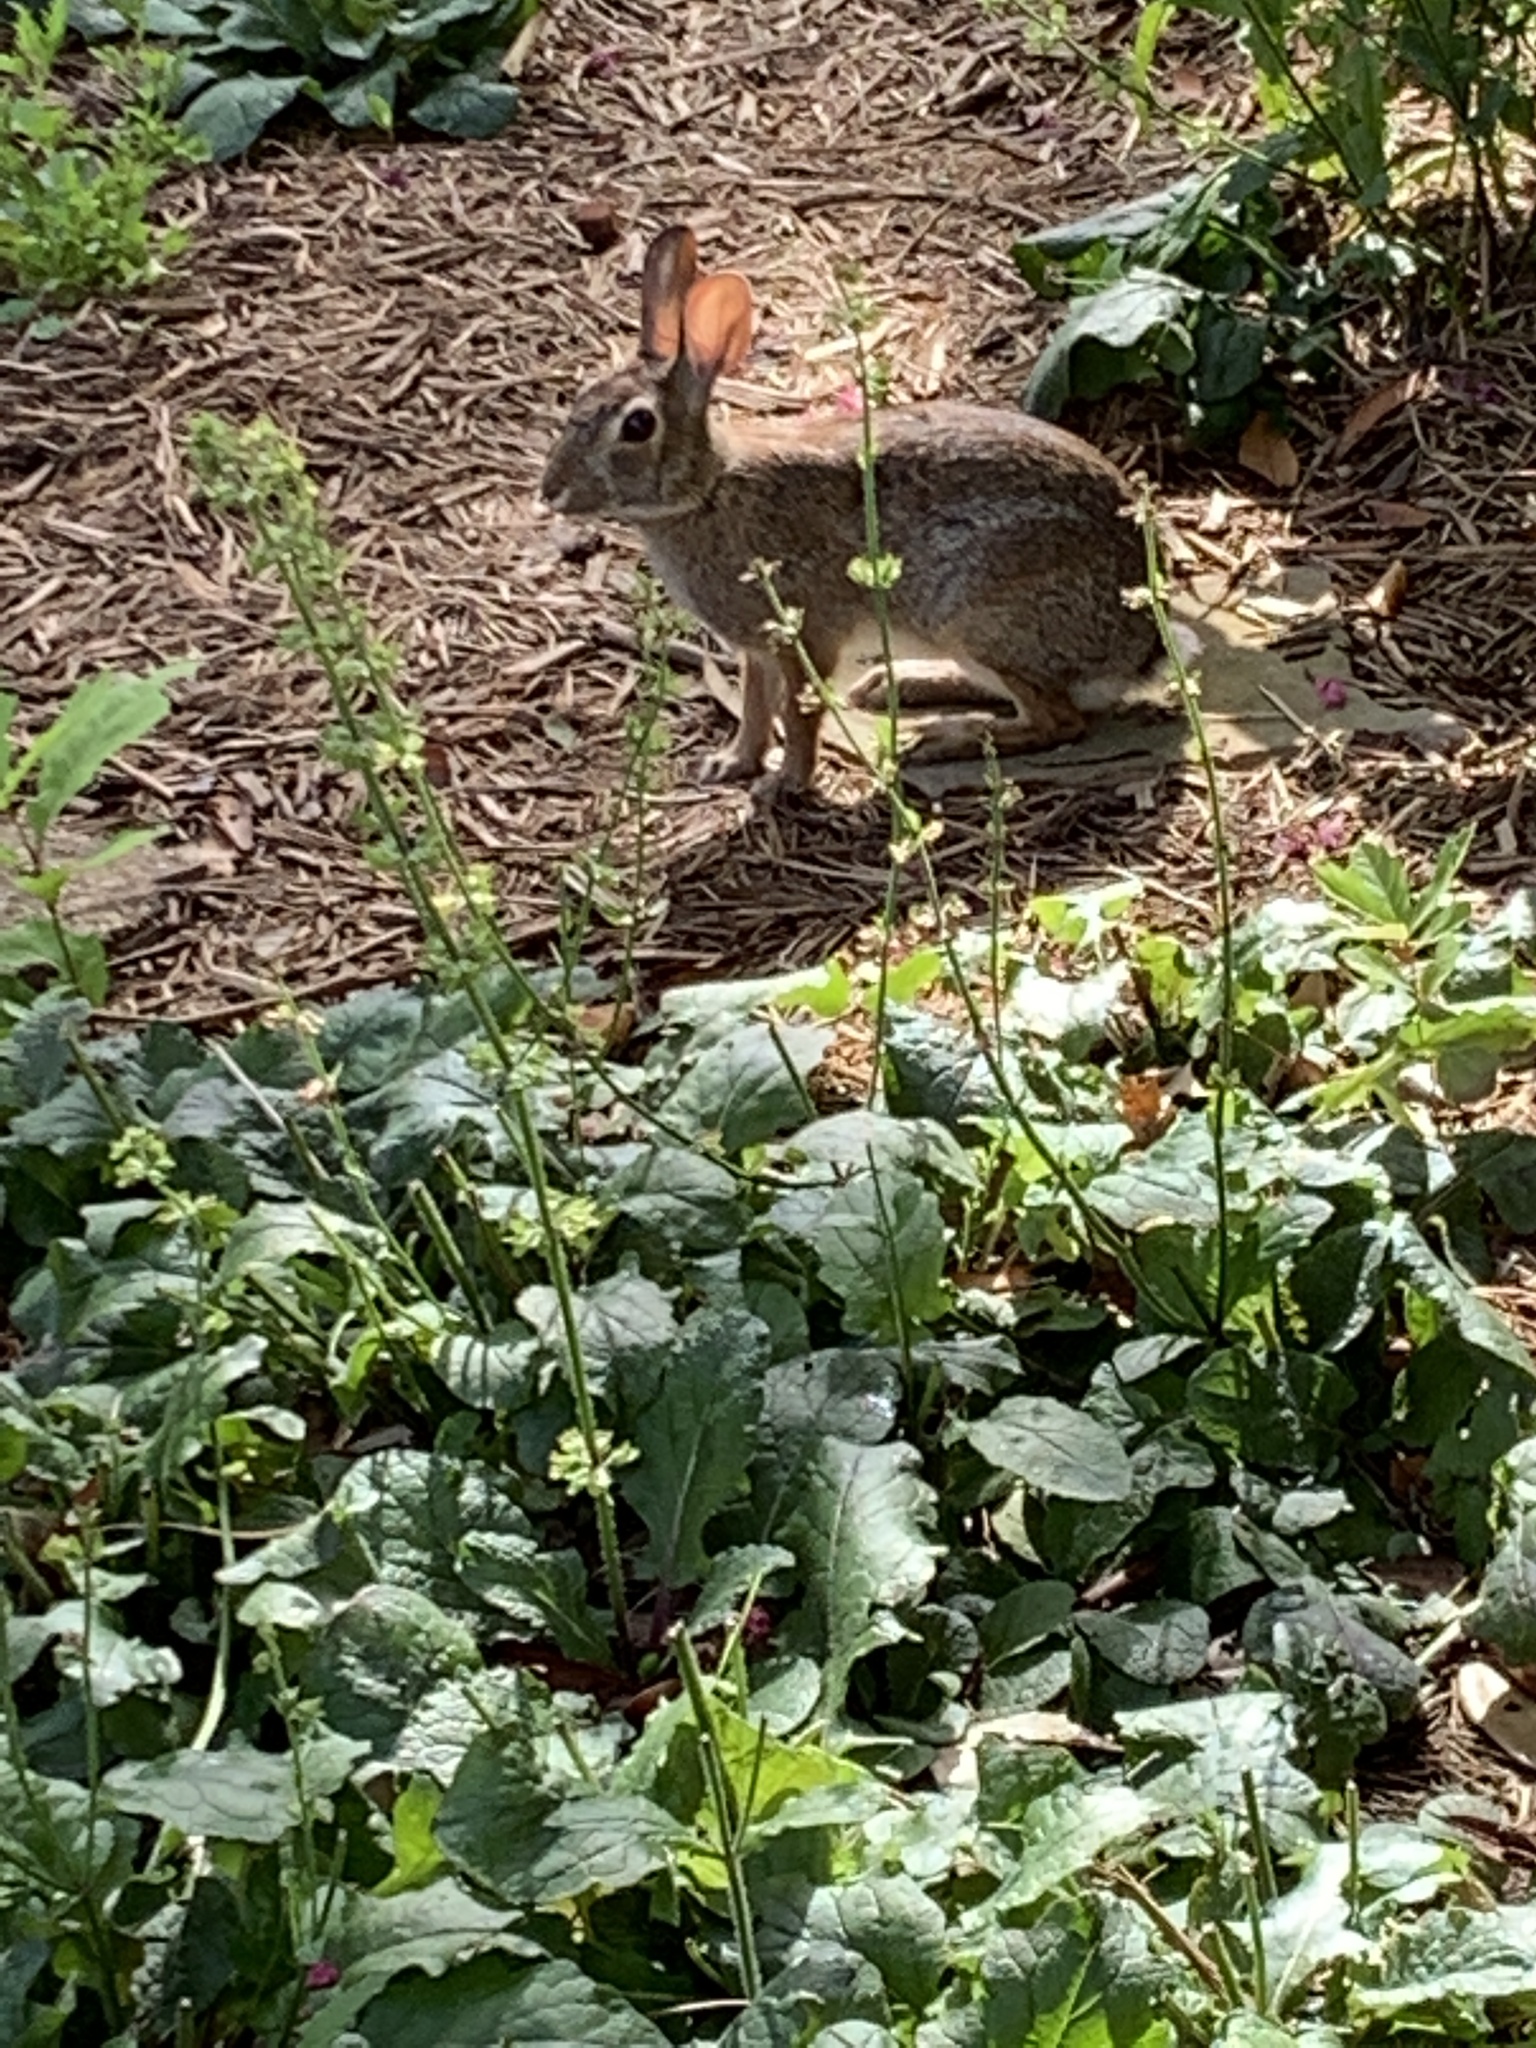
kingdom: Animalia
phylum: Chordata
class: Mammalia
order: Lagomorpha
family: Leporidae
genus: Sylvilagus
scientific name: Sylvilagus floridanus
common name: Eastern cottontail
